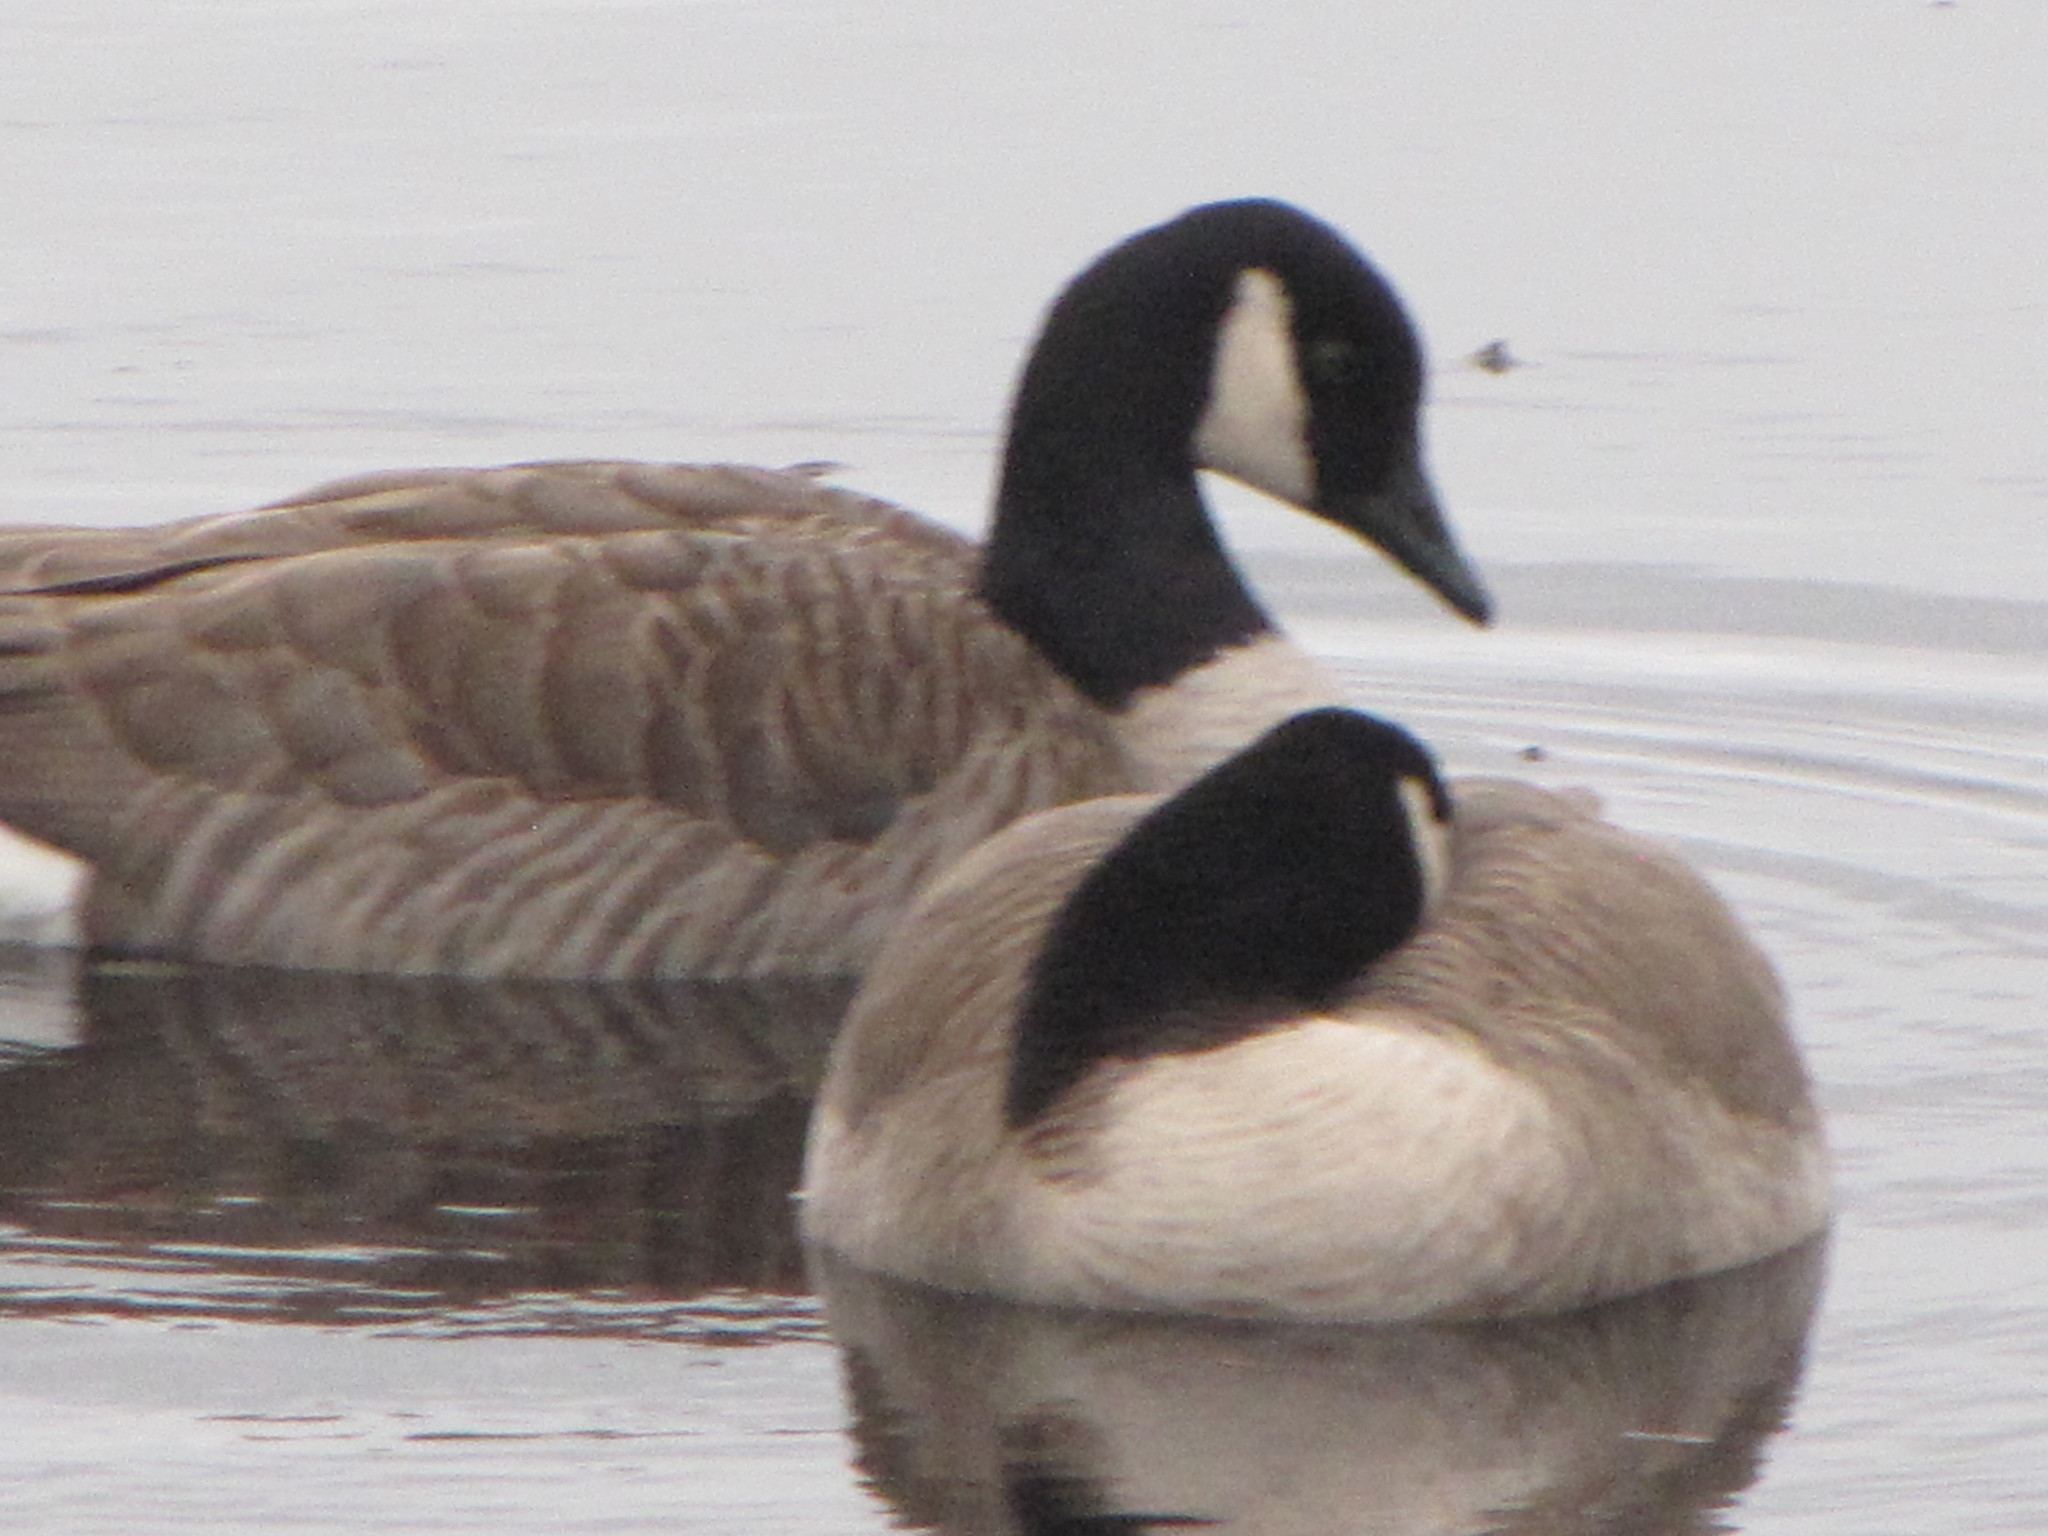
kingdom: Animalia
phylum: Chordata
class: Aves
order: Anseriformes
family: Anatidae
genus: Branta
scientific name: Branta canadensis
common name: Canada goose
